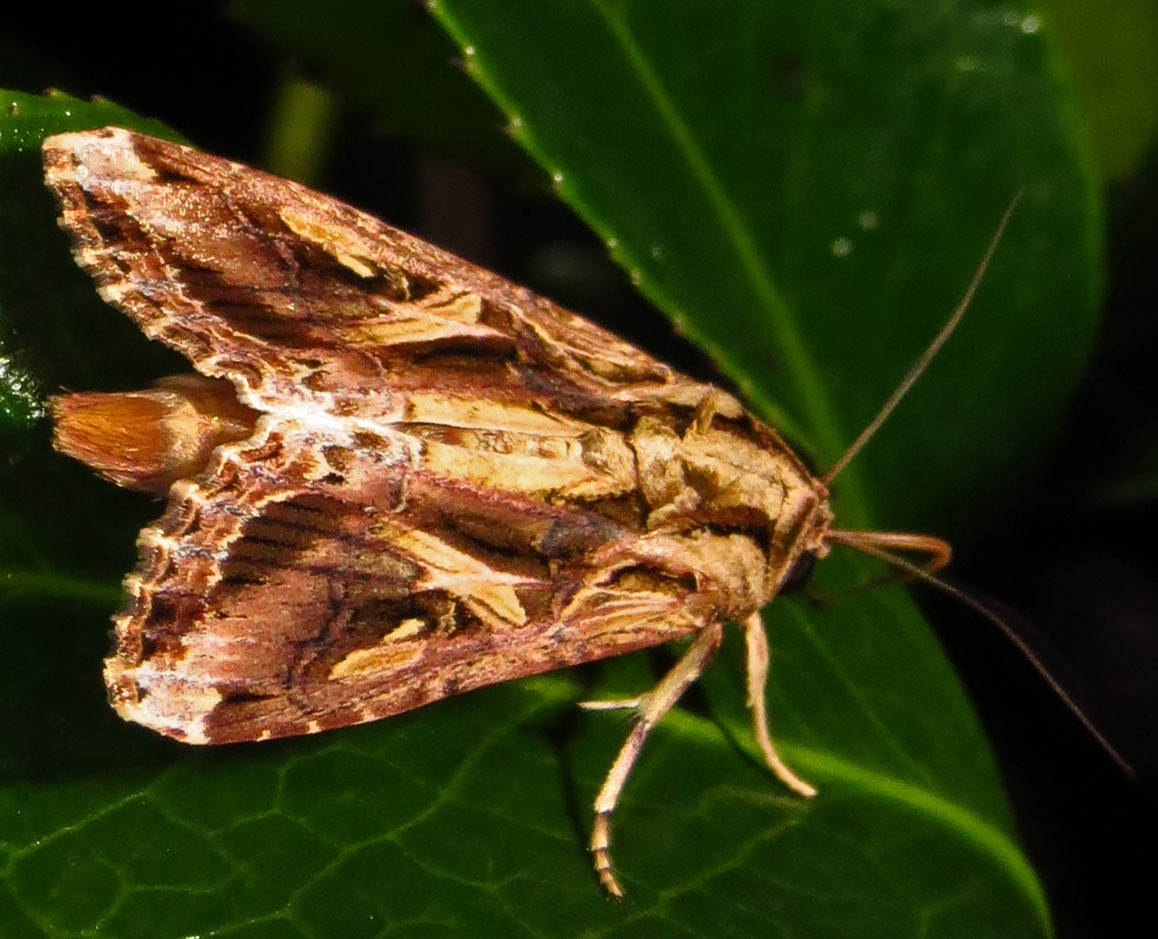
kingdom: Animalia
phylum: Arthropoda
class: Insecta
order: Lepidoptera
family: Noctuidae
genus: Spodoptera
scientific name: Spodoptera dolichos
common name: Sweetpotato armyworm
